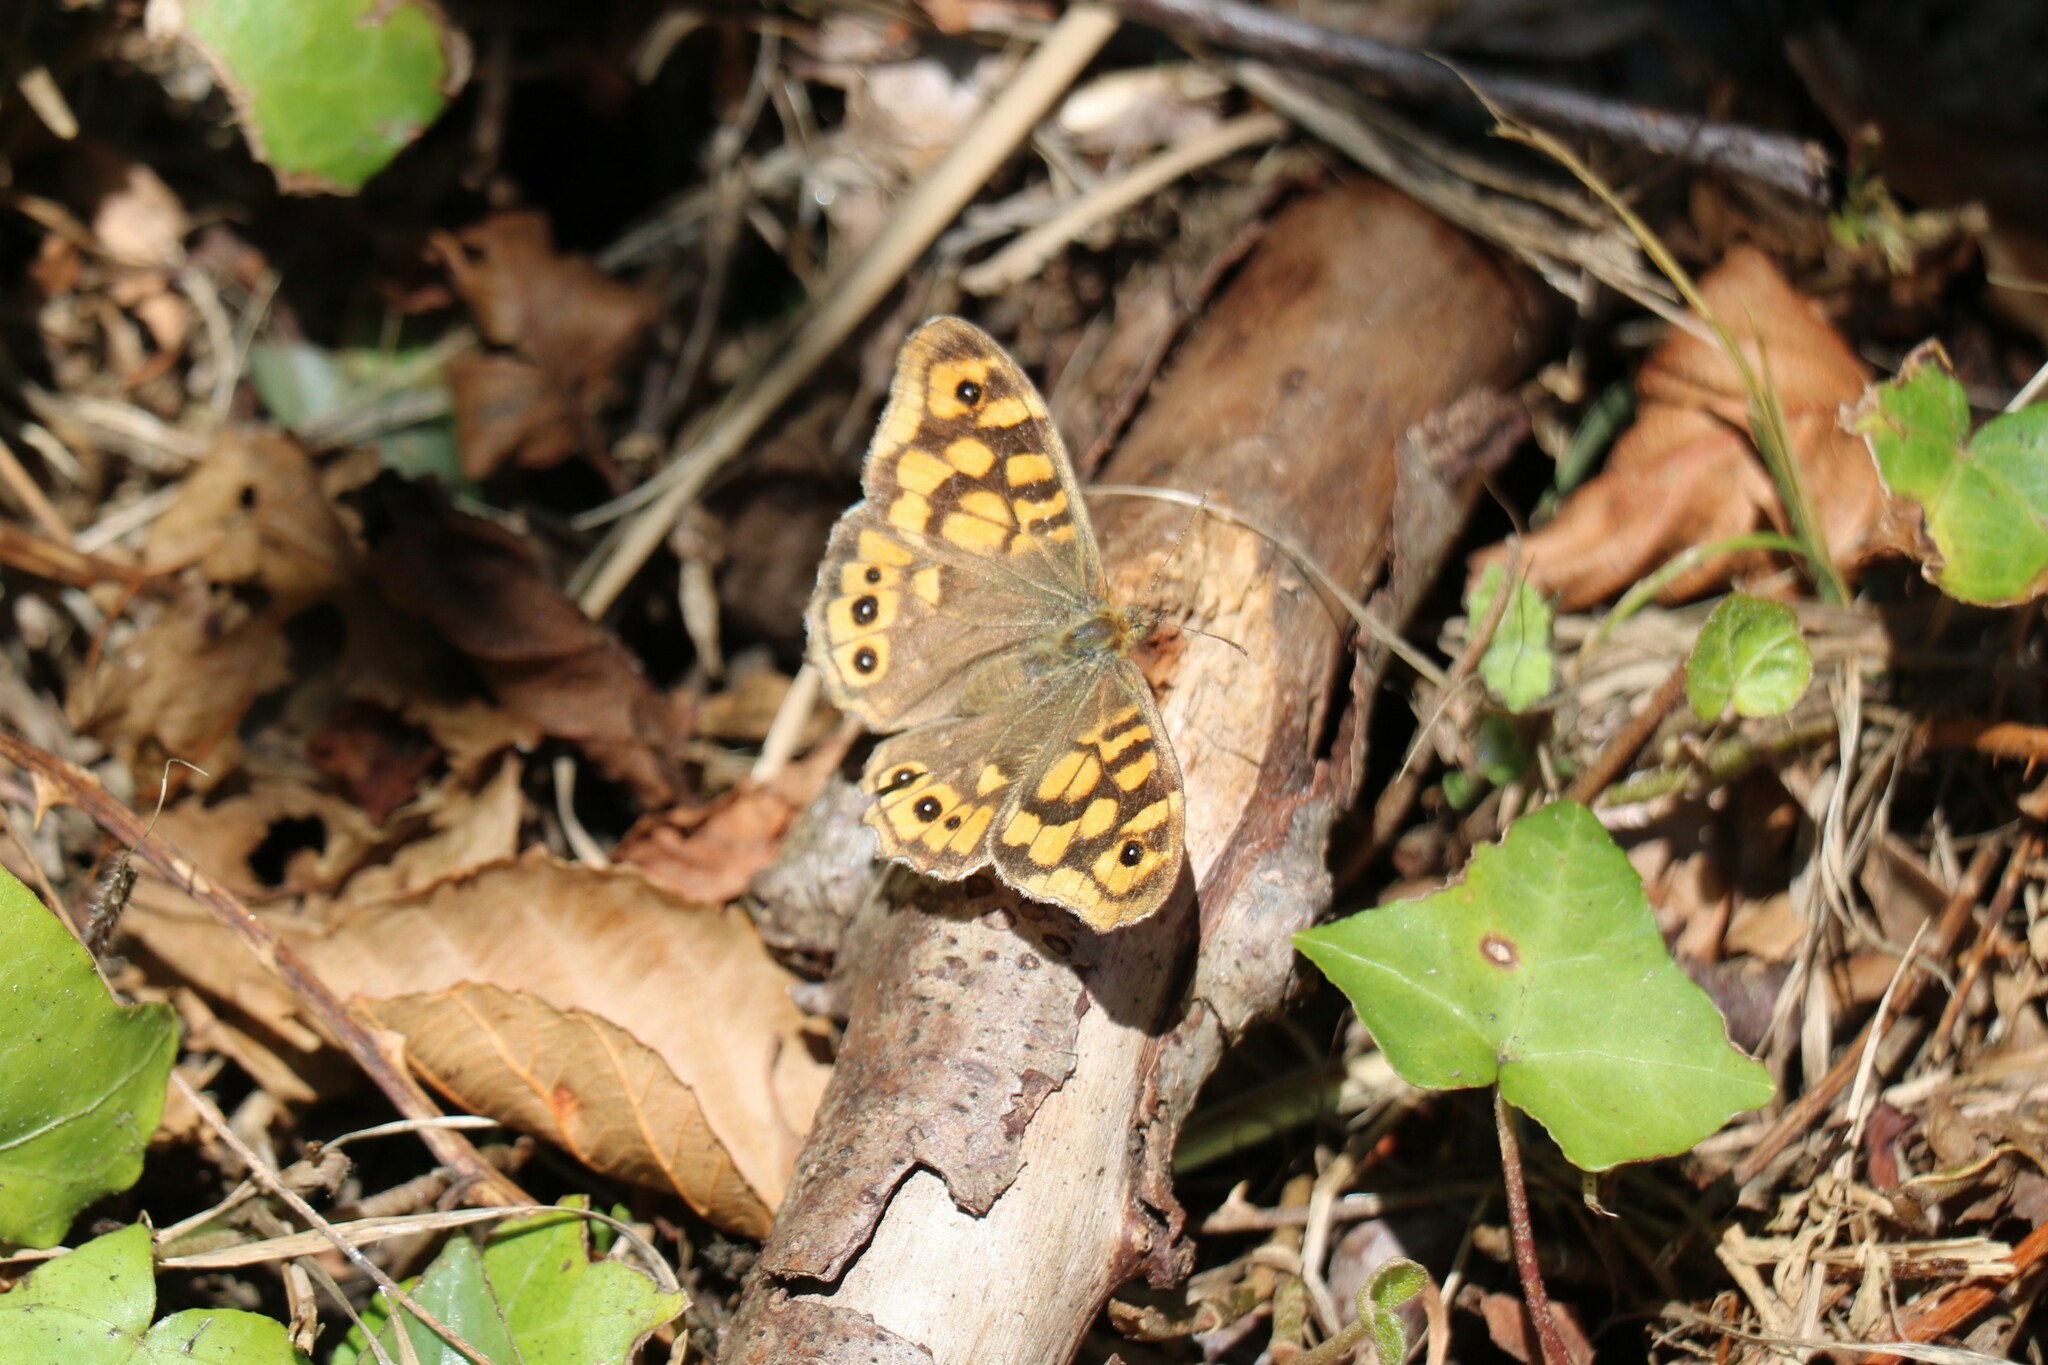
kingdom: Animalia
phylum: Arthropoda
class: Insecta
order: Lepidoptera
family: Nymphalidae
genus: Pararge
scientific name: Pararge aegeria
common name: Speckled wood
